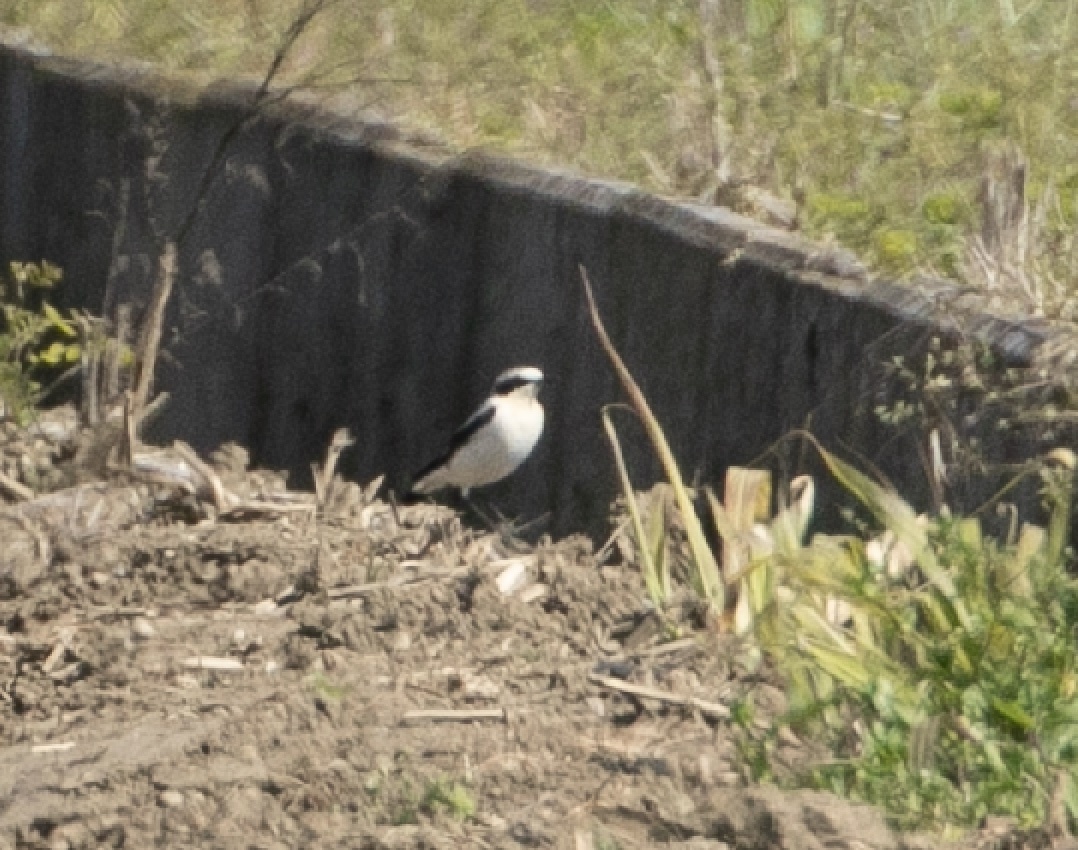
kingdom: Animalia
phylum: Chordata
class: Aves
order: Passeriformes
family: Muscicapidae
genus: Oenanthe
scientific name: Oenanthe oenanthe
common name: Northern wheatear
